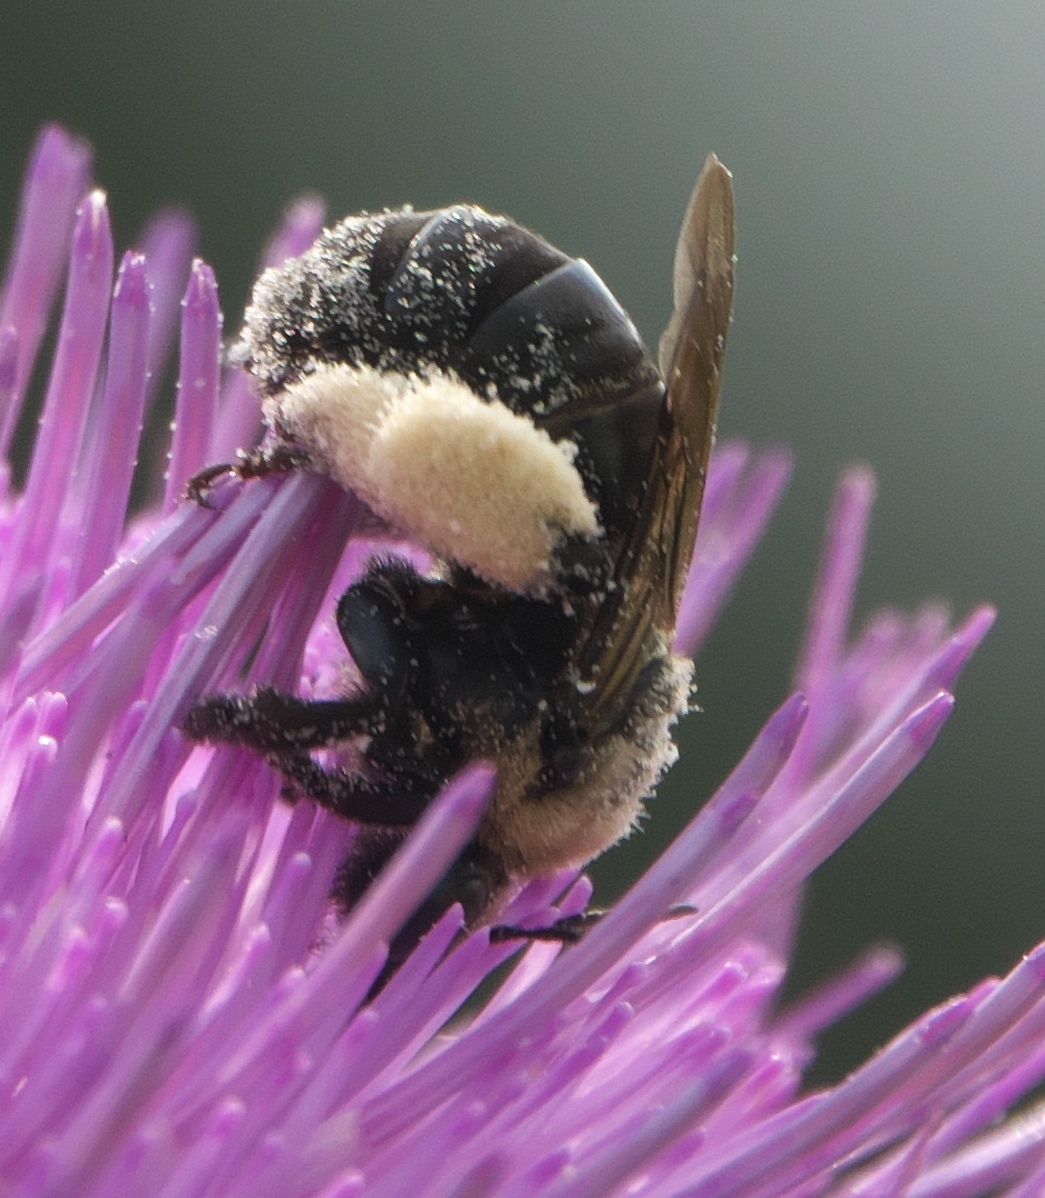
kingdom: Animalia
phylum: Arthropoda
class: Insecta
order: Hymenoptera
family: Apidae
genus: Melissodes
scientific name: Melissodes desponsus
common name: Thistle long-horned bee
